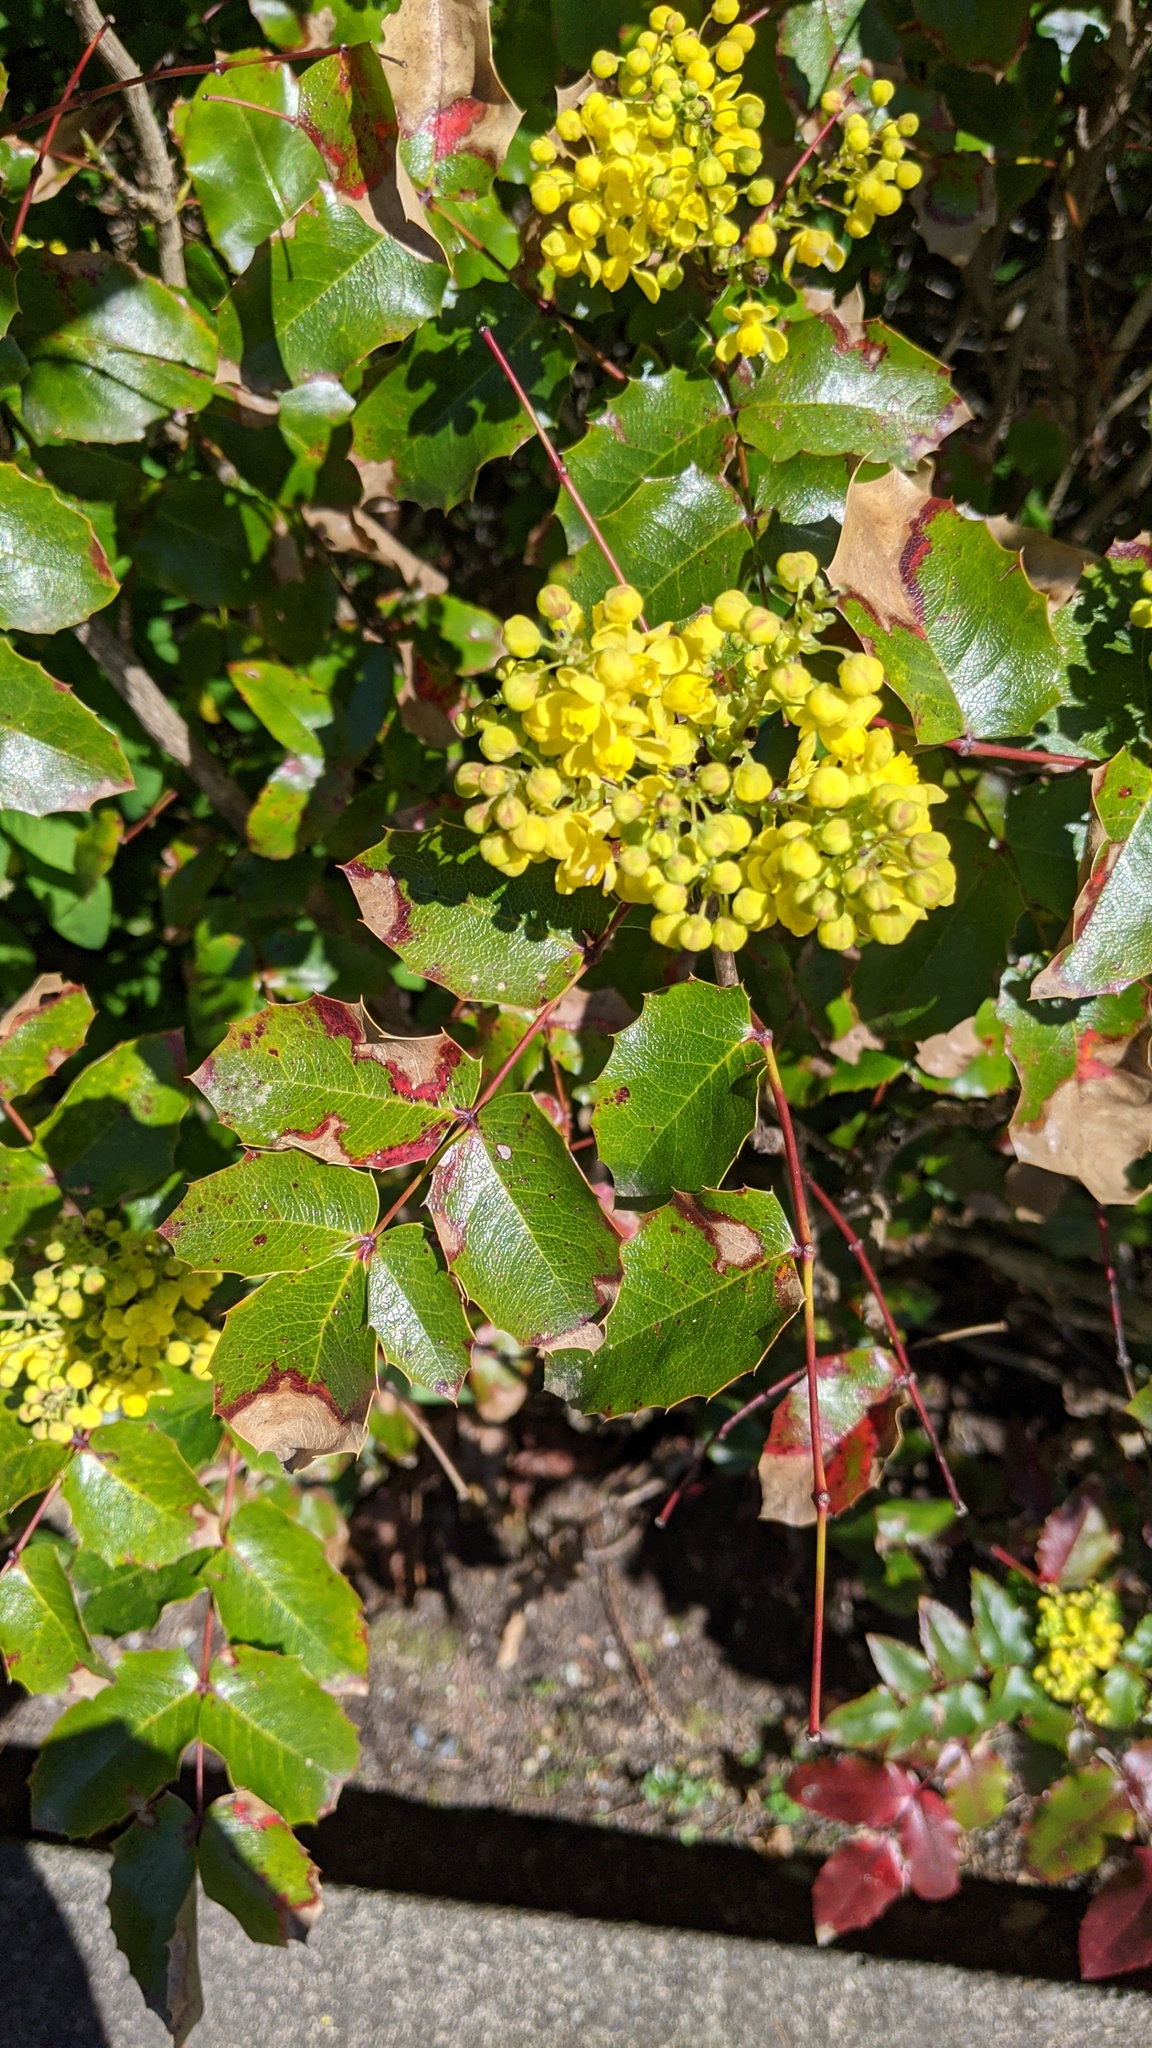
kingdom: Plantae
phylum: Tracheophyta
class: Magnoliopsida
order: Ranunculales
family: Berberidaceae
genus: Mahonia
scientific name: Mahonia aquifolium
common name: Oregon-grape
